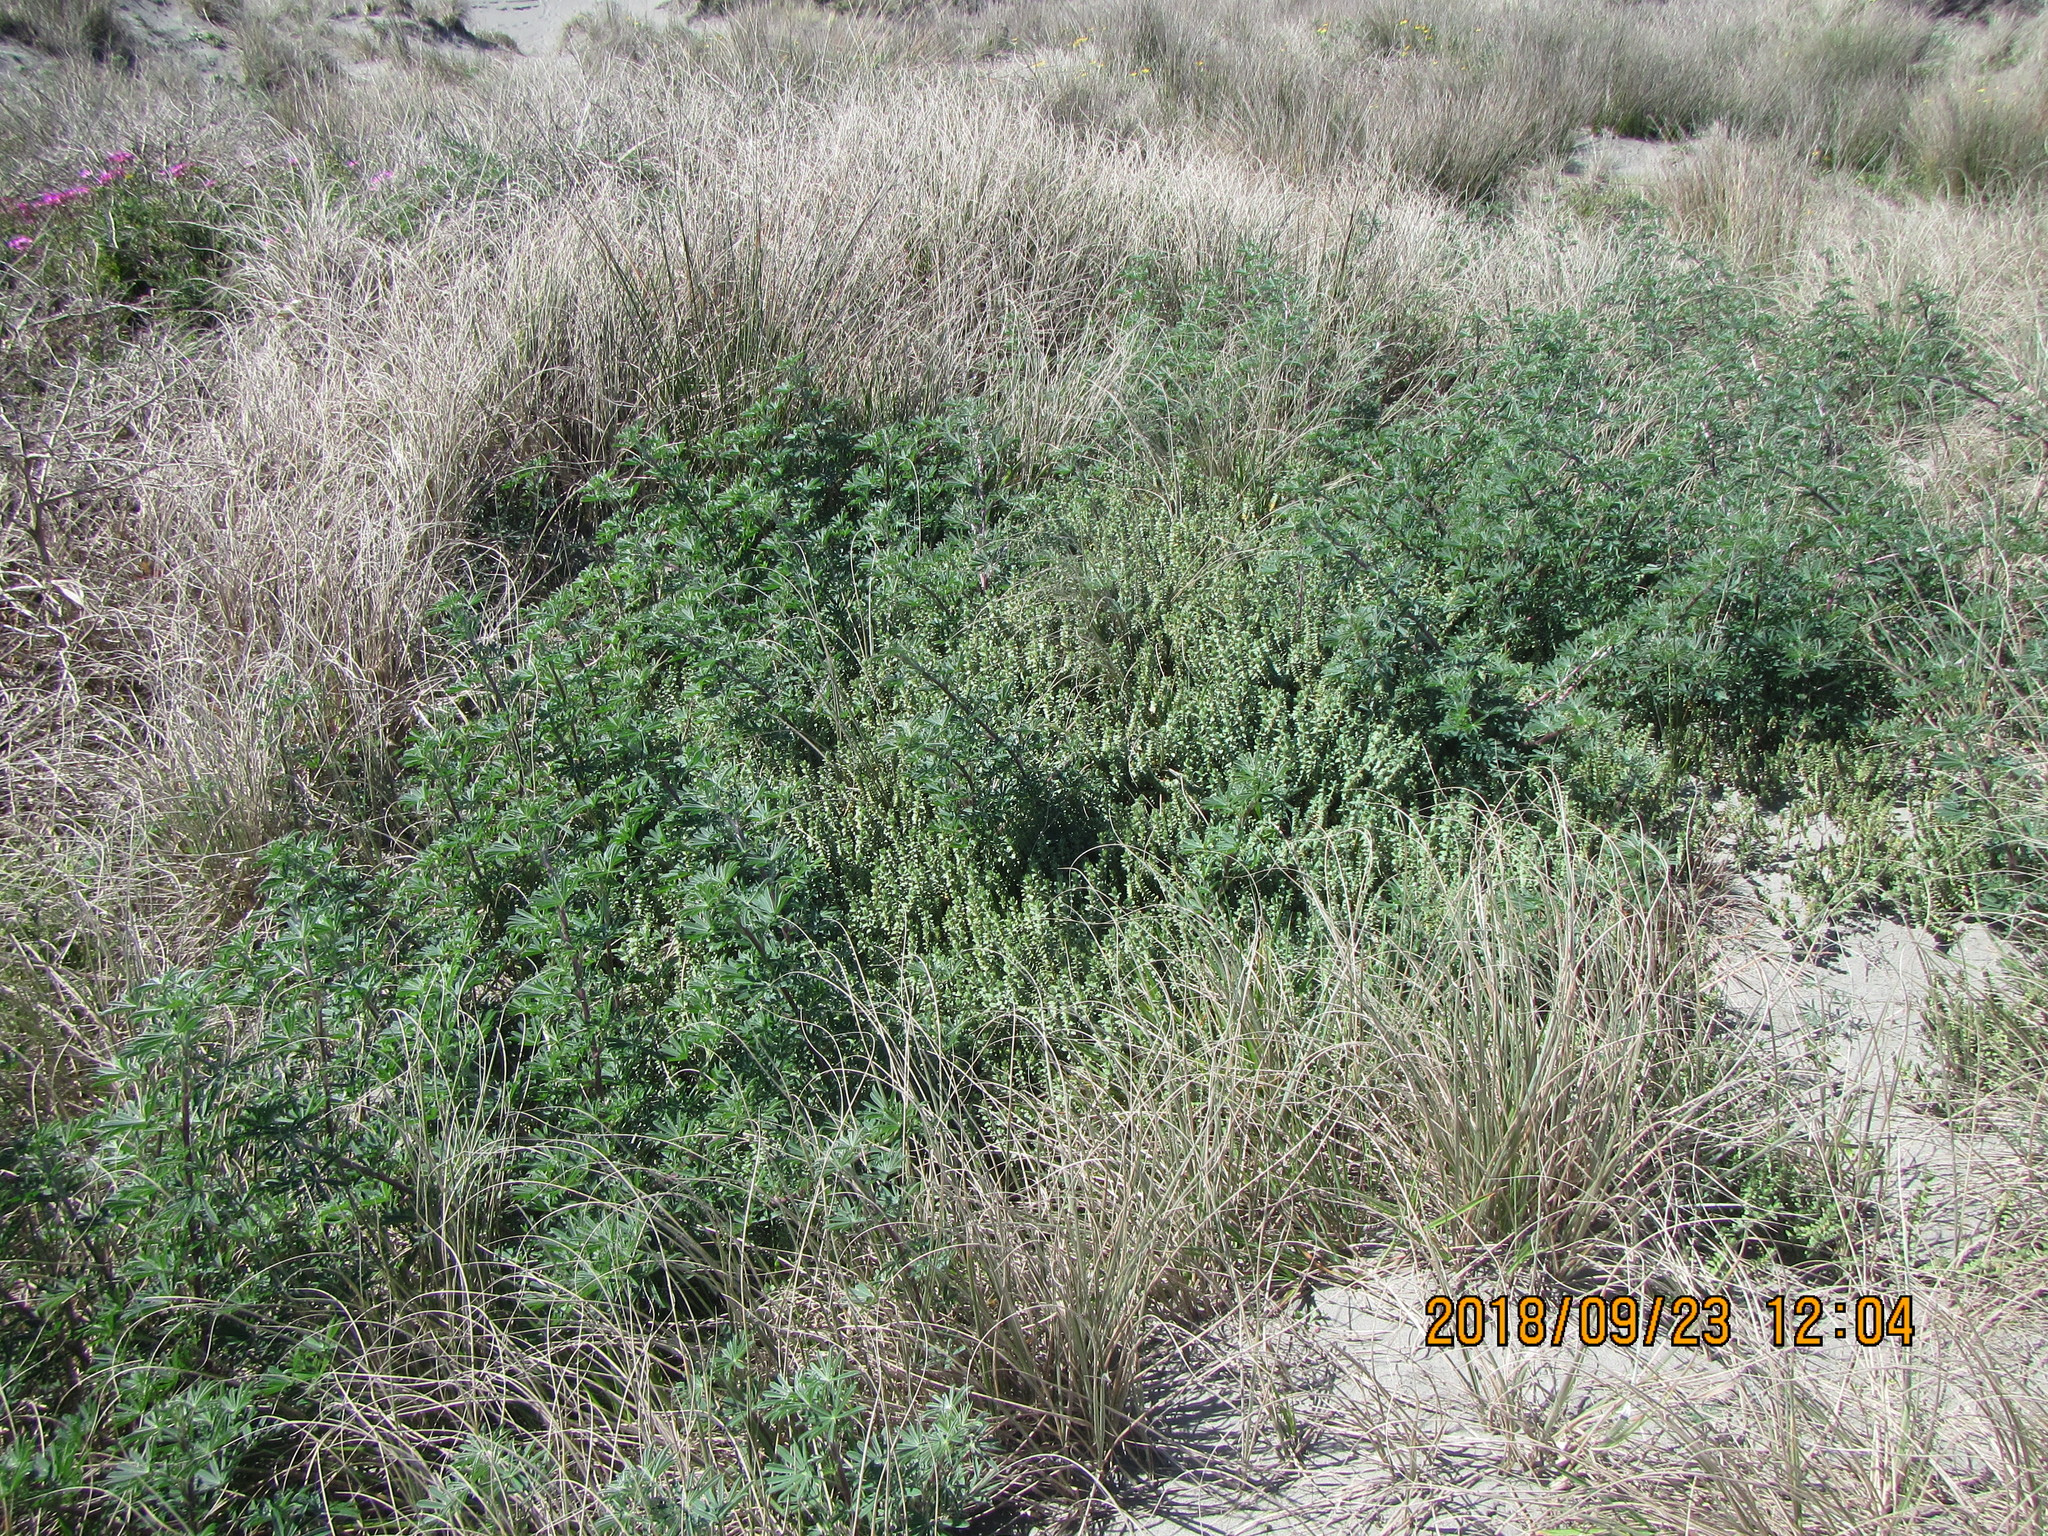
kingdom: Plantae
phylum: Tracheophyta
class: Magnoliopsida
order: Malvales
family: Thymelaeaceae
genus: Pimelea
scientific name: Pimelea villosa
